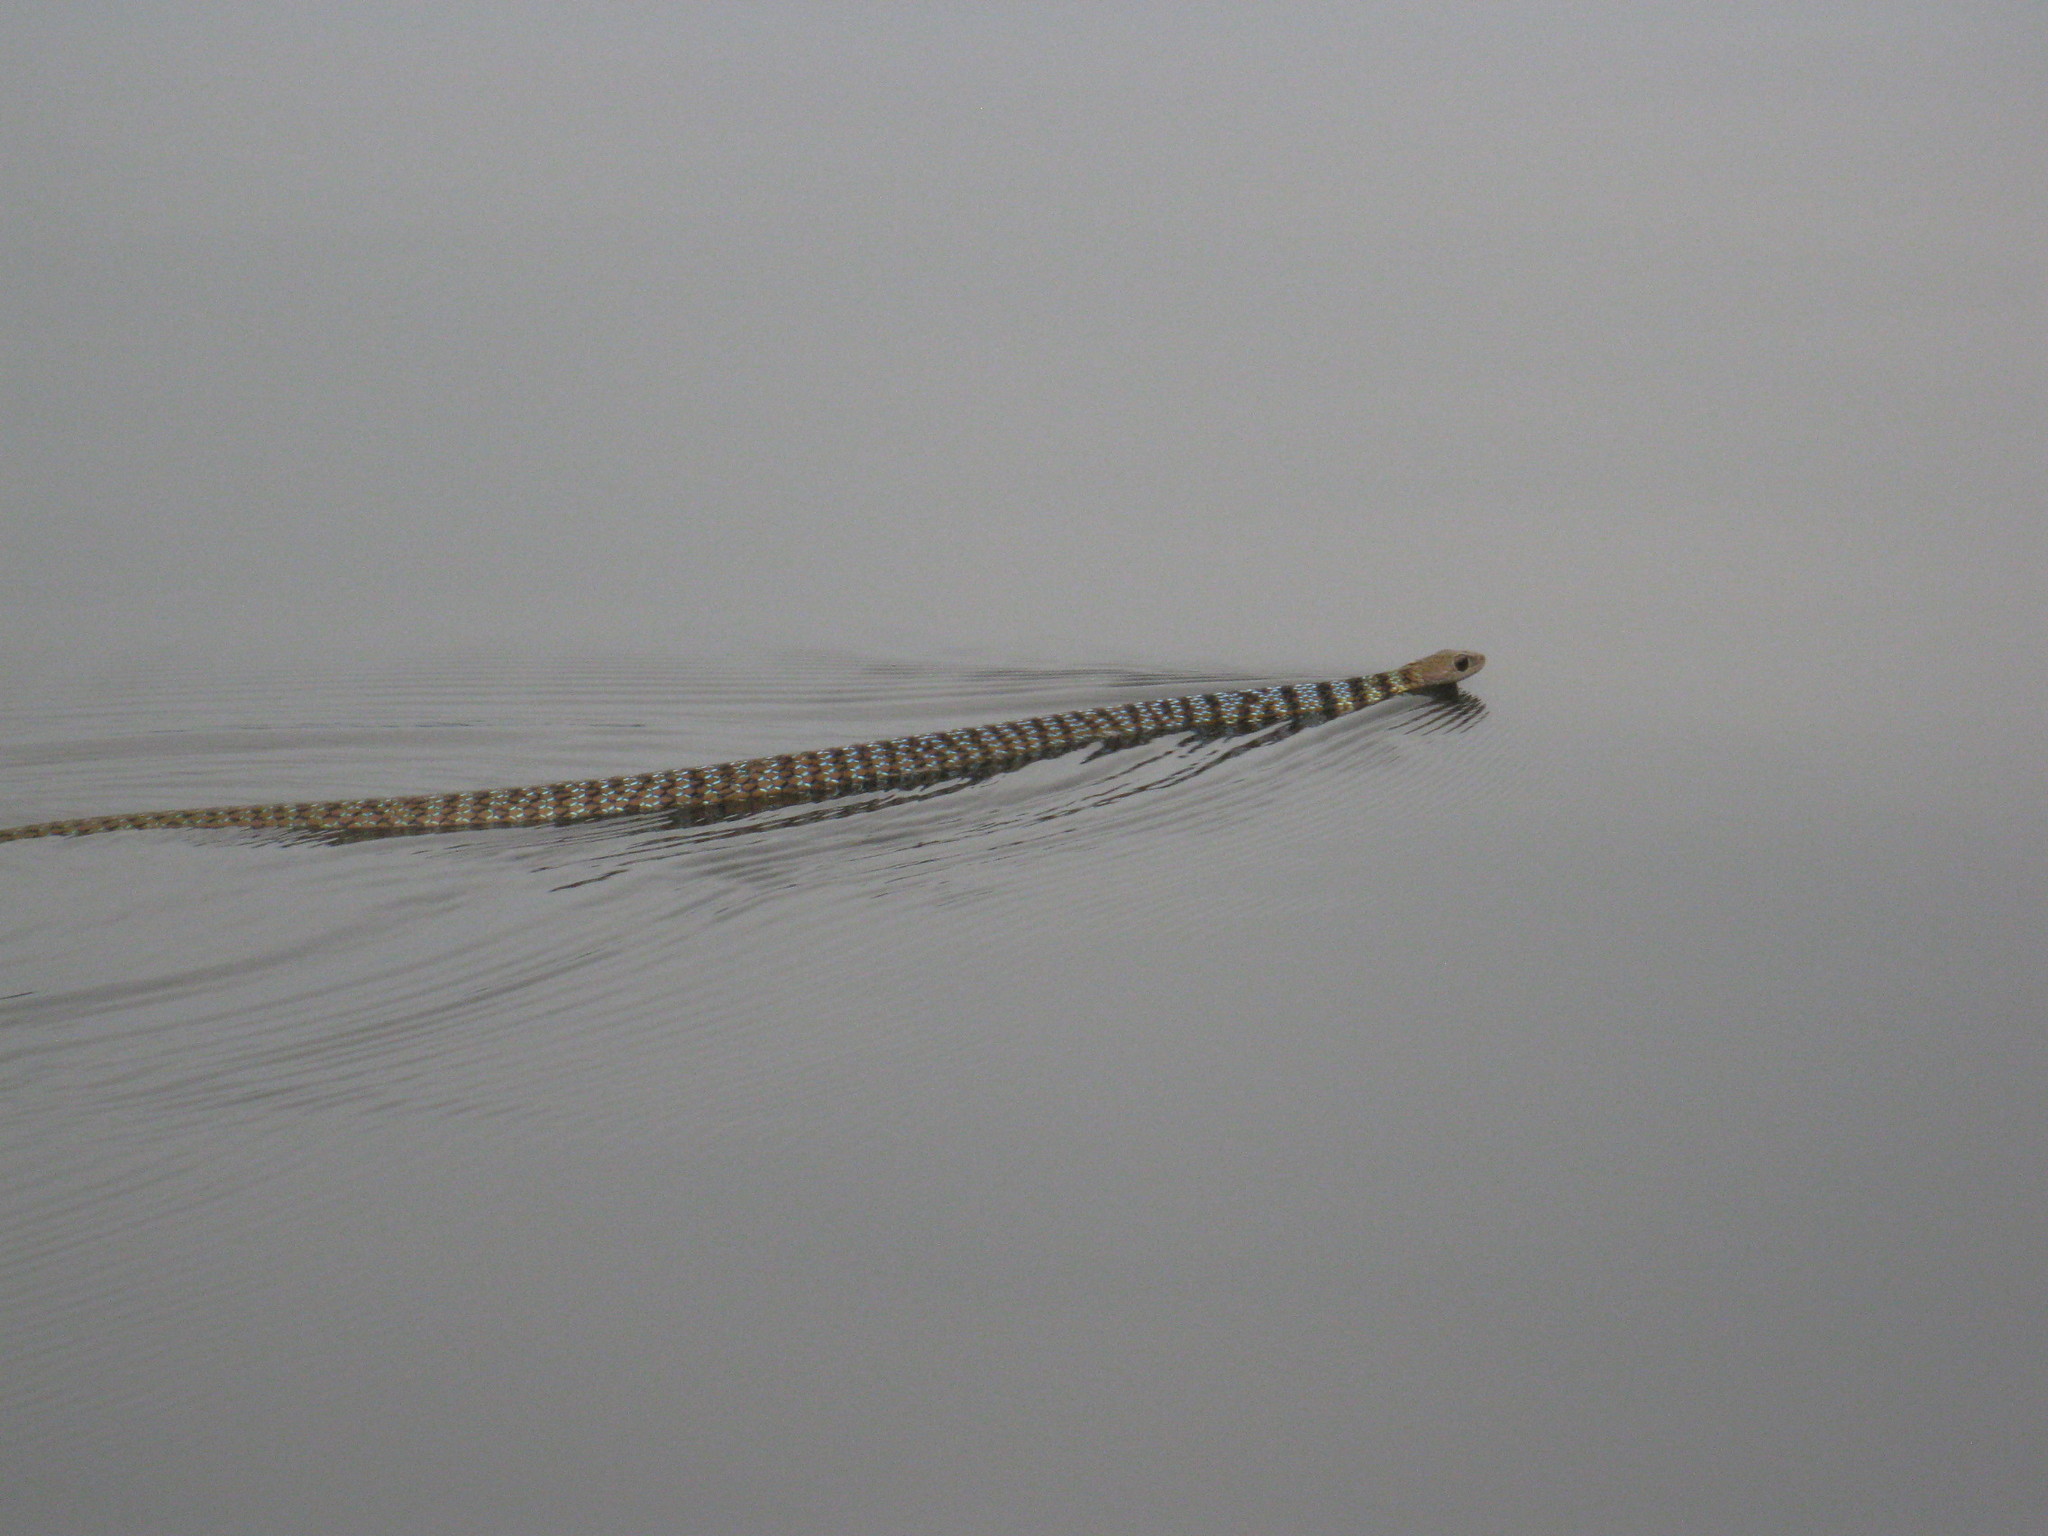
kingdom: Animalia
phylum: Chordata
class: Squamata
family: Colubridae
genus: Philothamnus
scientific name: Philothamnus dorsalis
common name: Striped green snake
